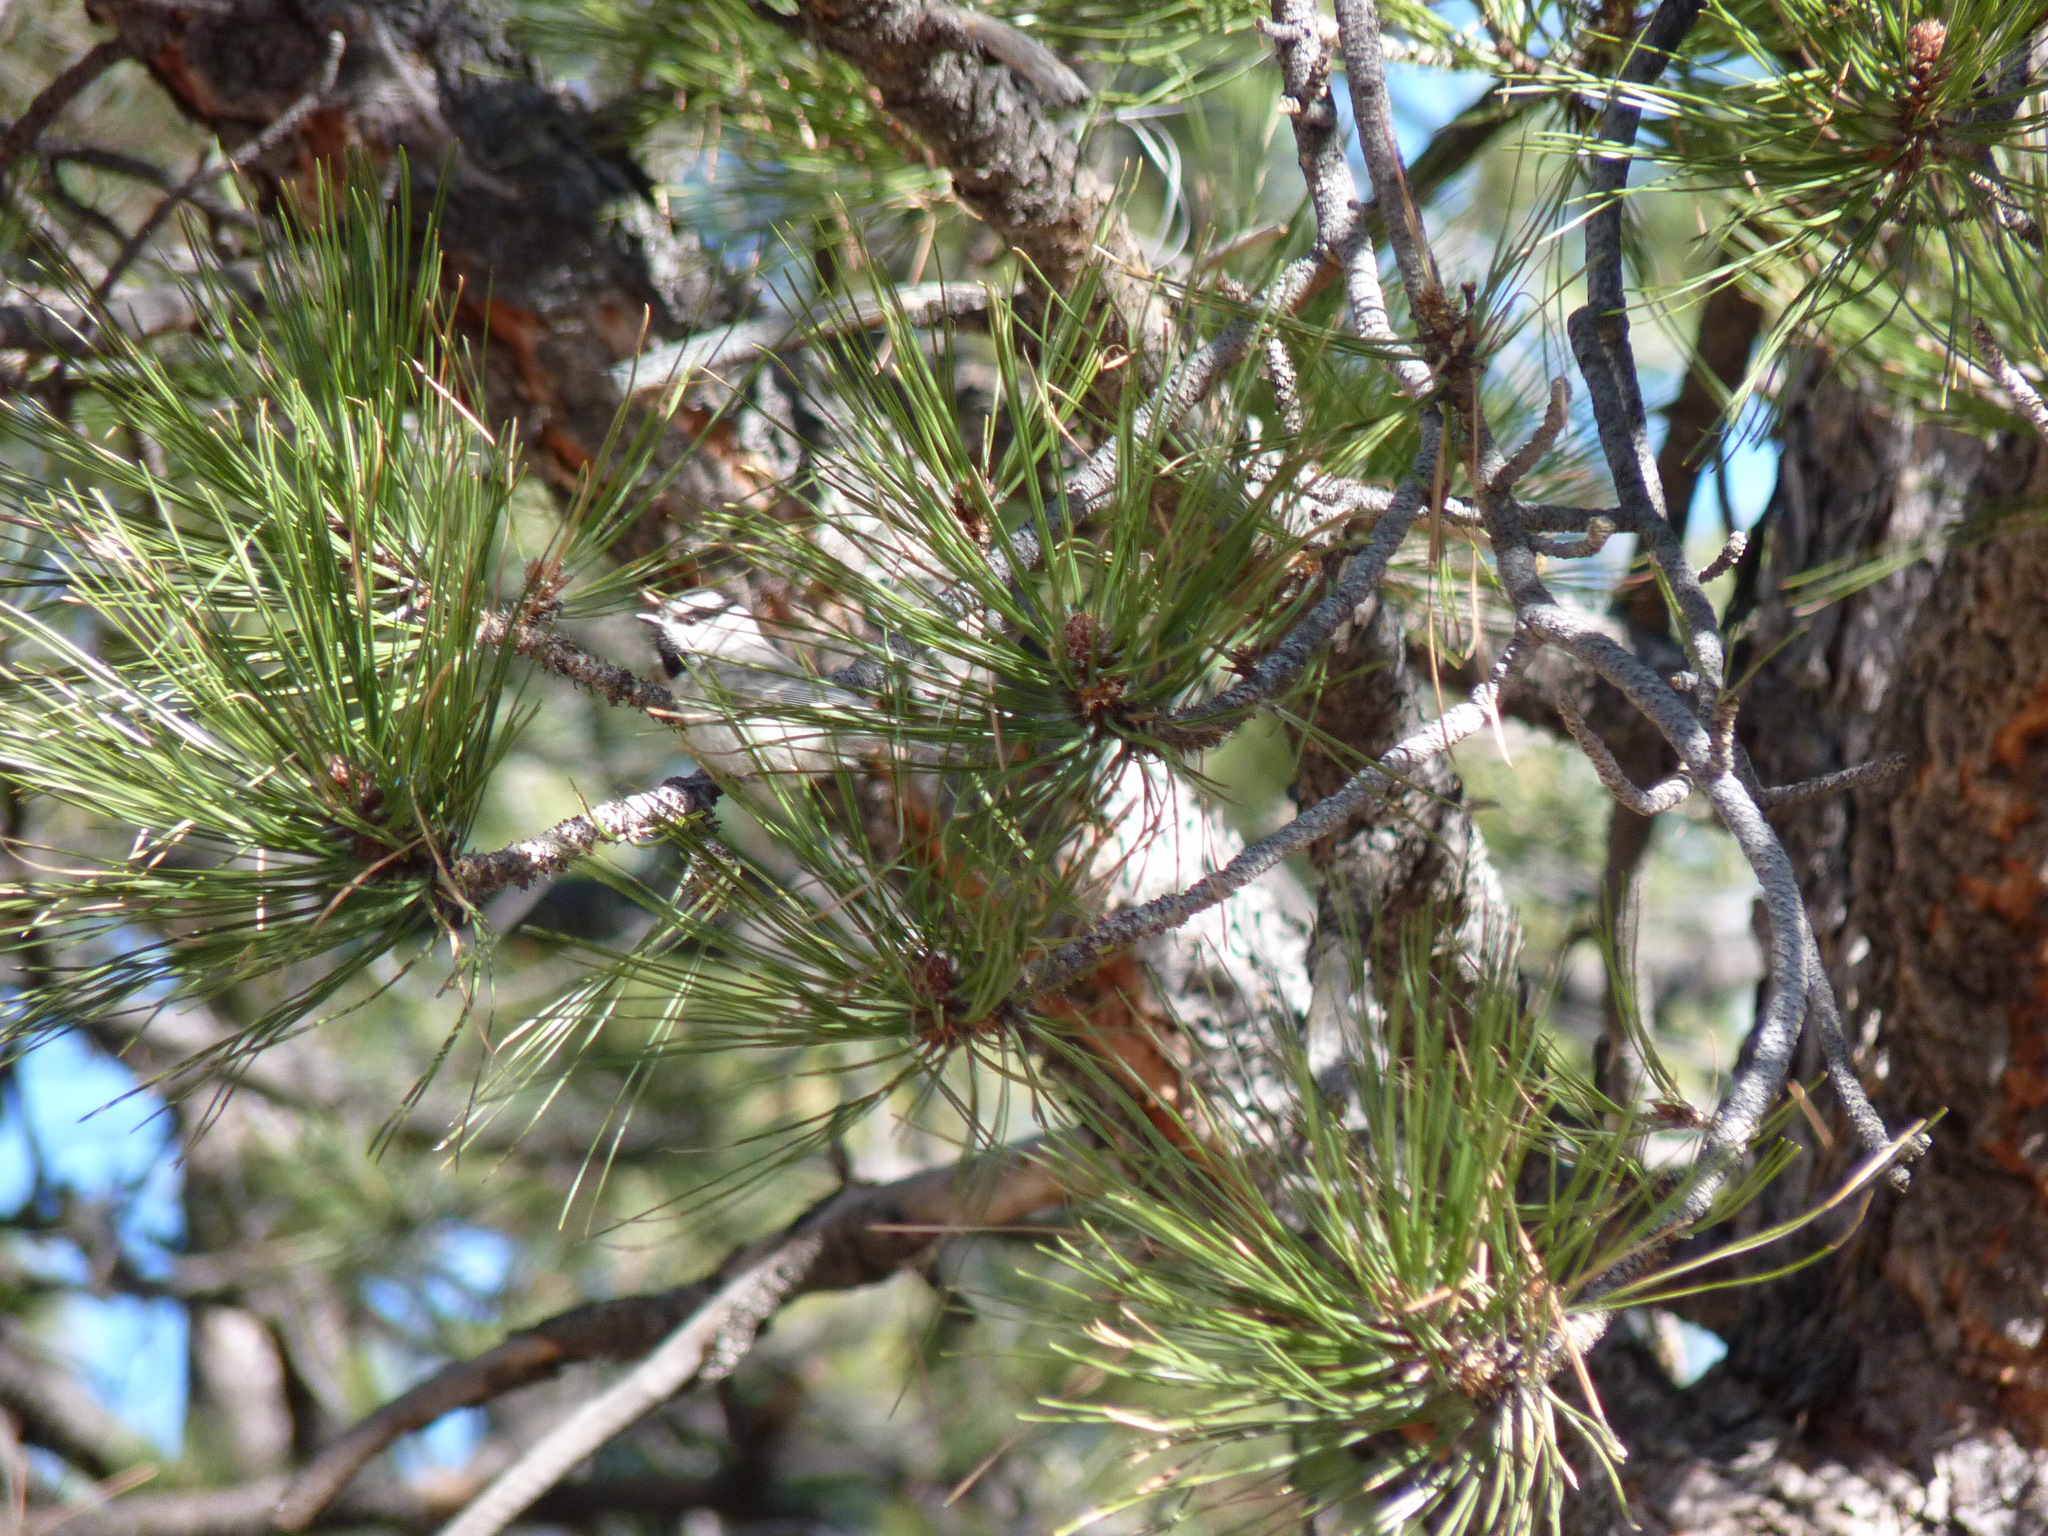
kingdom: Animalia
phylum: Chordata
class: Aves
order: Passeriformes
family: Paridae
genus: Poecile
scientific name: Poecile gambeli
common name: Mountain chickadee
